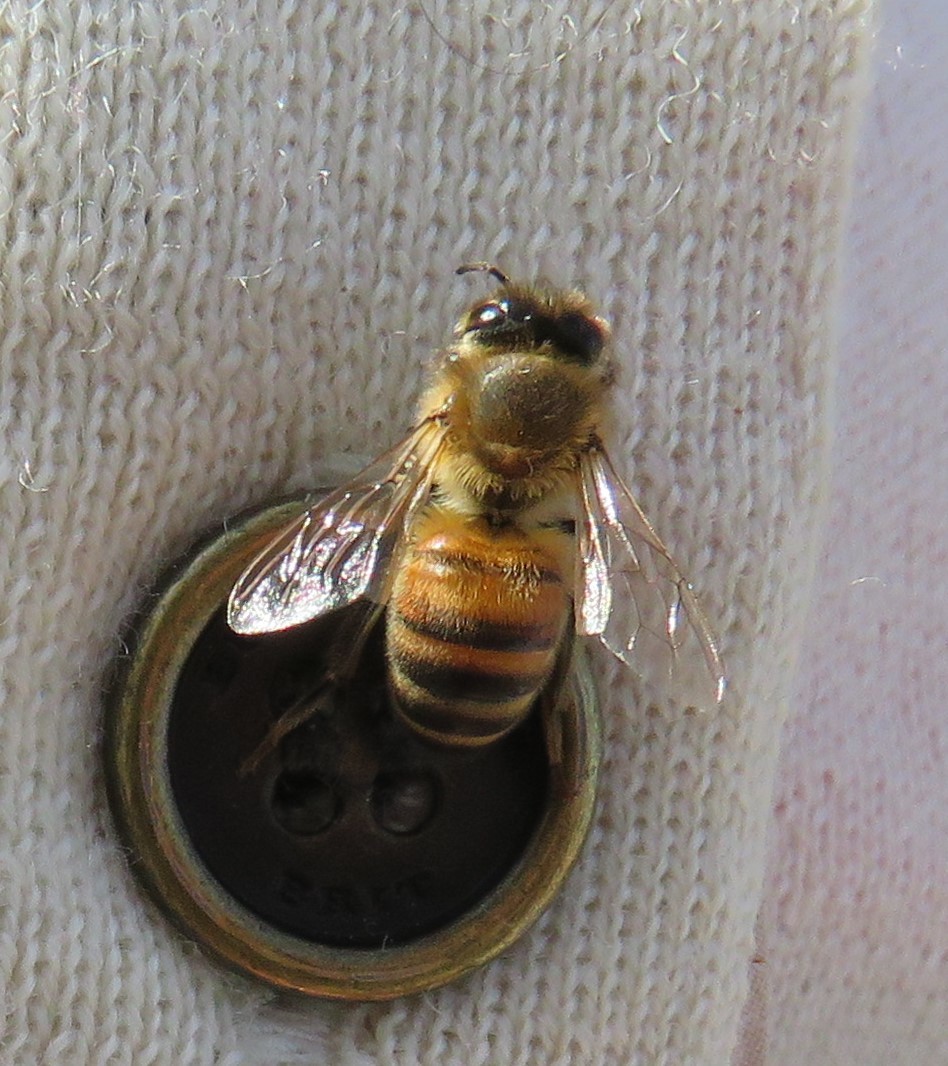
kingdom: Animalia
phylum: Arthropoda
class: Insecta
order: Hymenoptera
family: Apidae
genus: Apis
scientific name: Apis mellifera
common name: Honey bee
